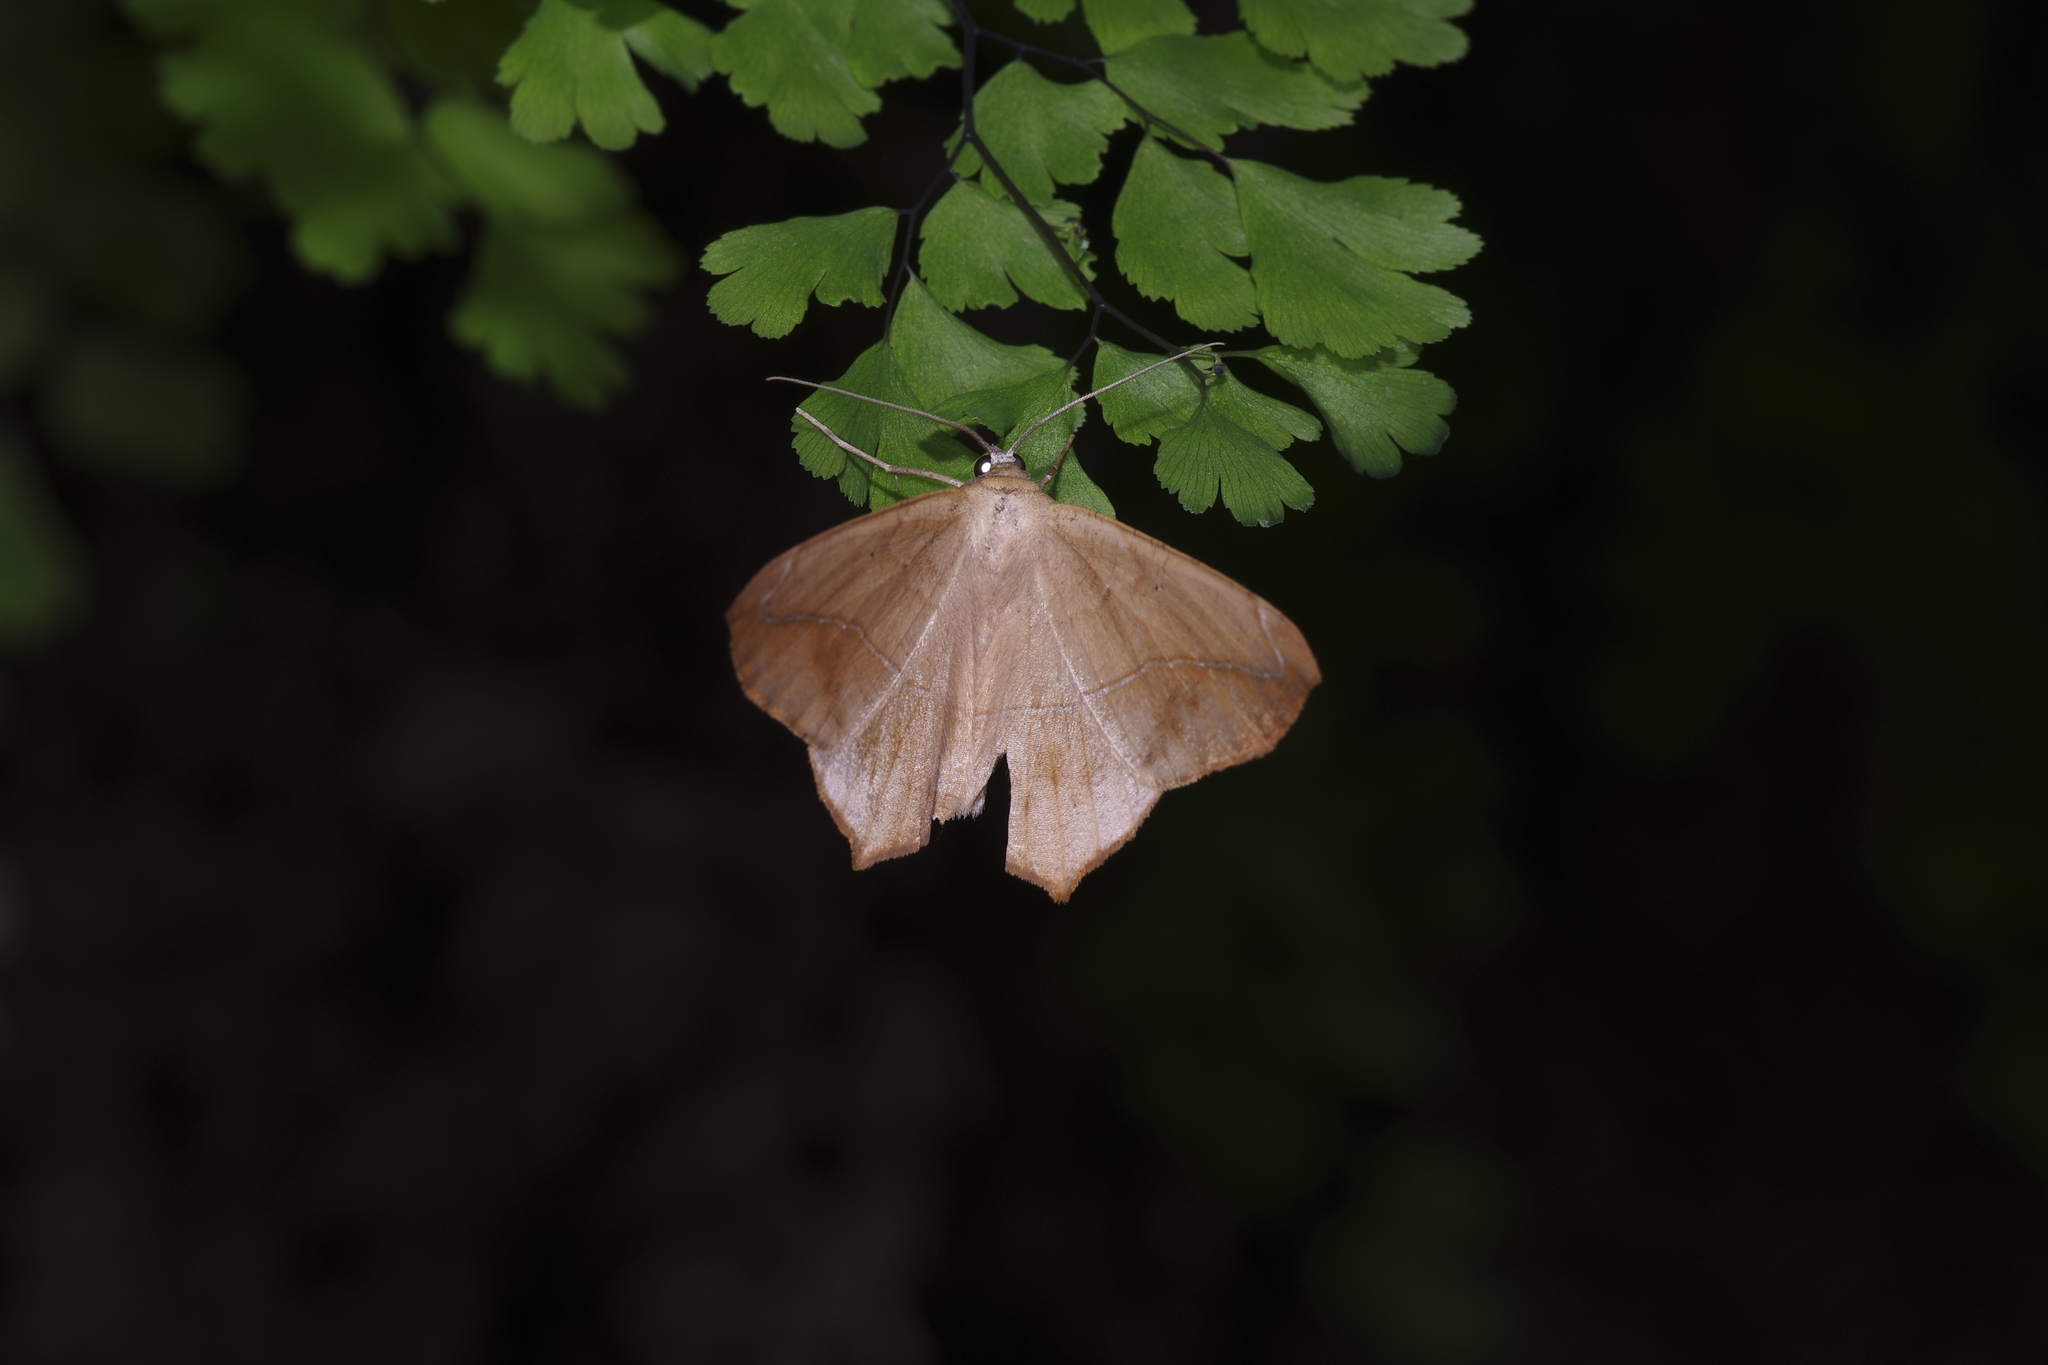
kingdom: Animalia
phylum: Arthropoda
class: Insecta
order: Lepidoptera
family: Geometridae
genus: Prochoerodes
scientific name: Prochoerodes lineola
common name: Large maple spanworm
